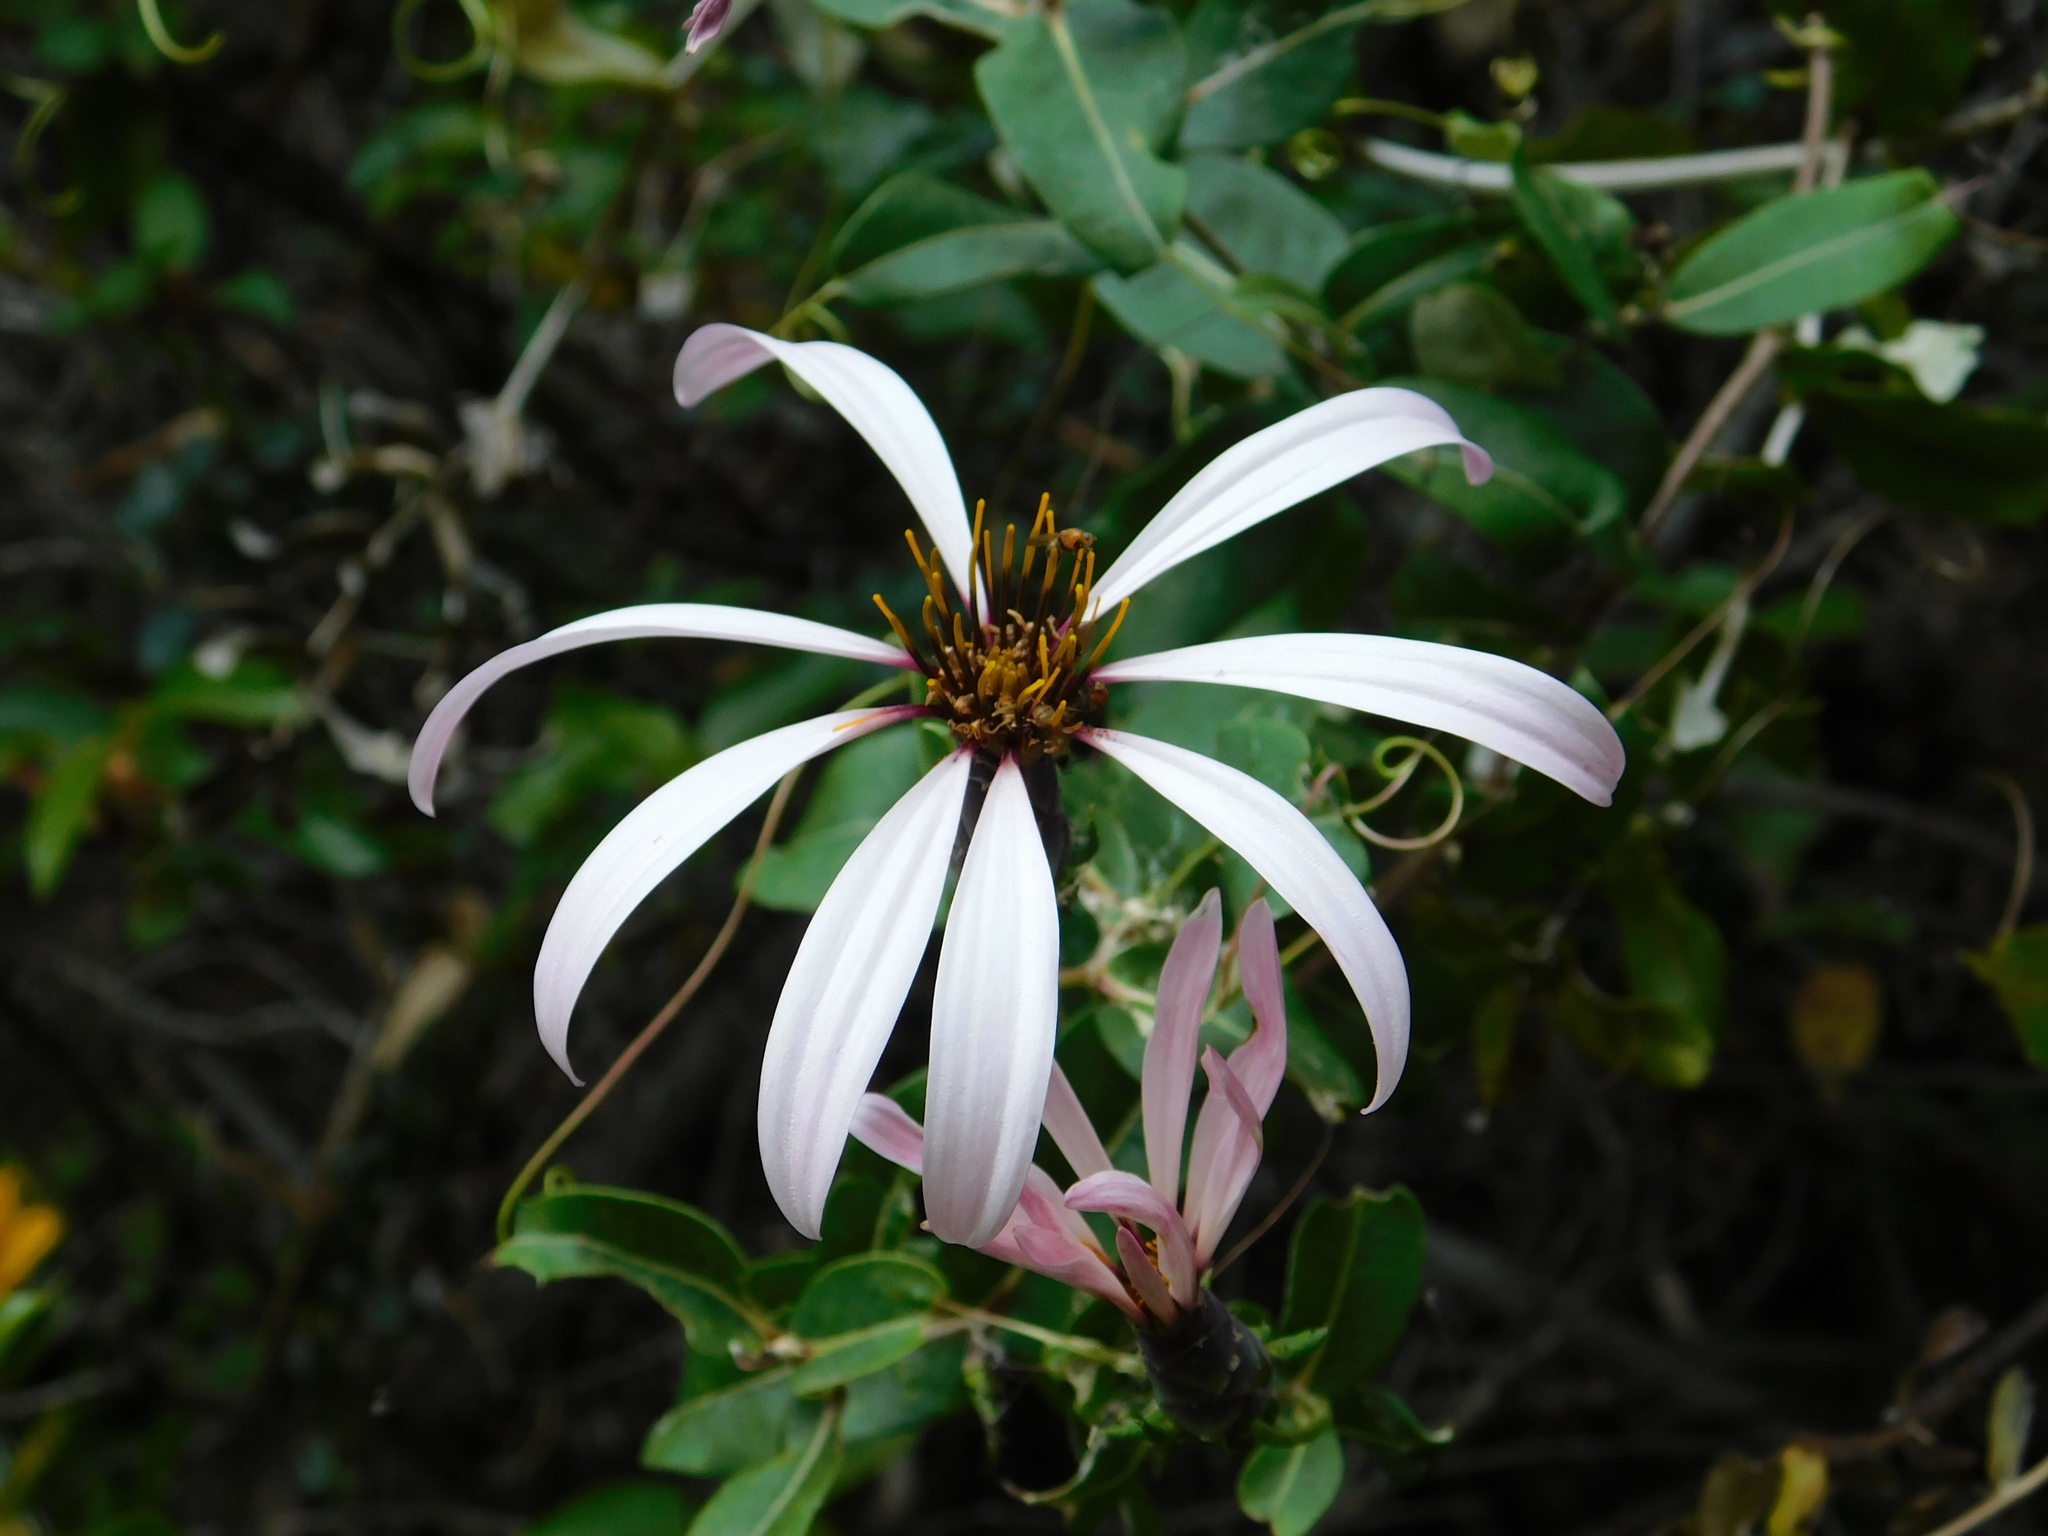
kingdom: Plantae
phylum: Tracheophyta
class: Magnoliopsida
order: Asterales
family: Asteraceae
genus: Mutisia
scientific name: Mutisia spinosa
